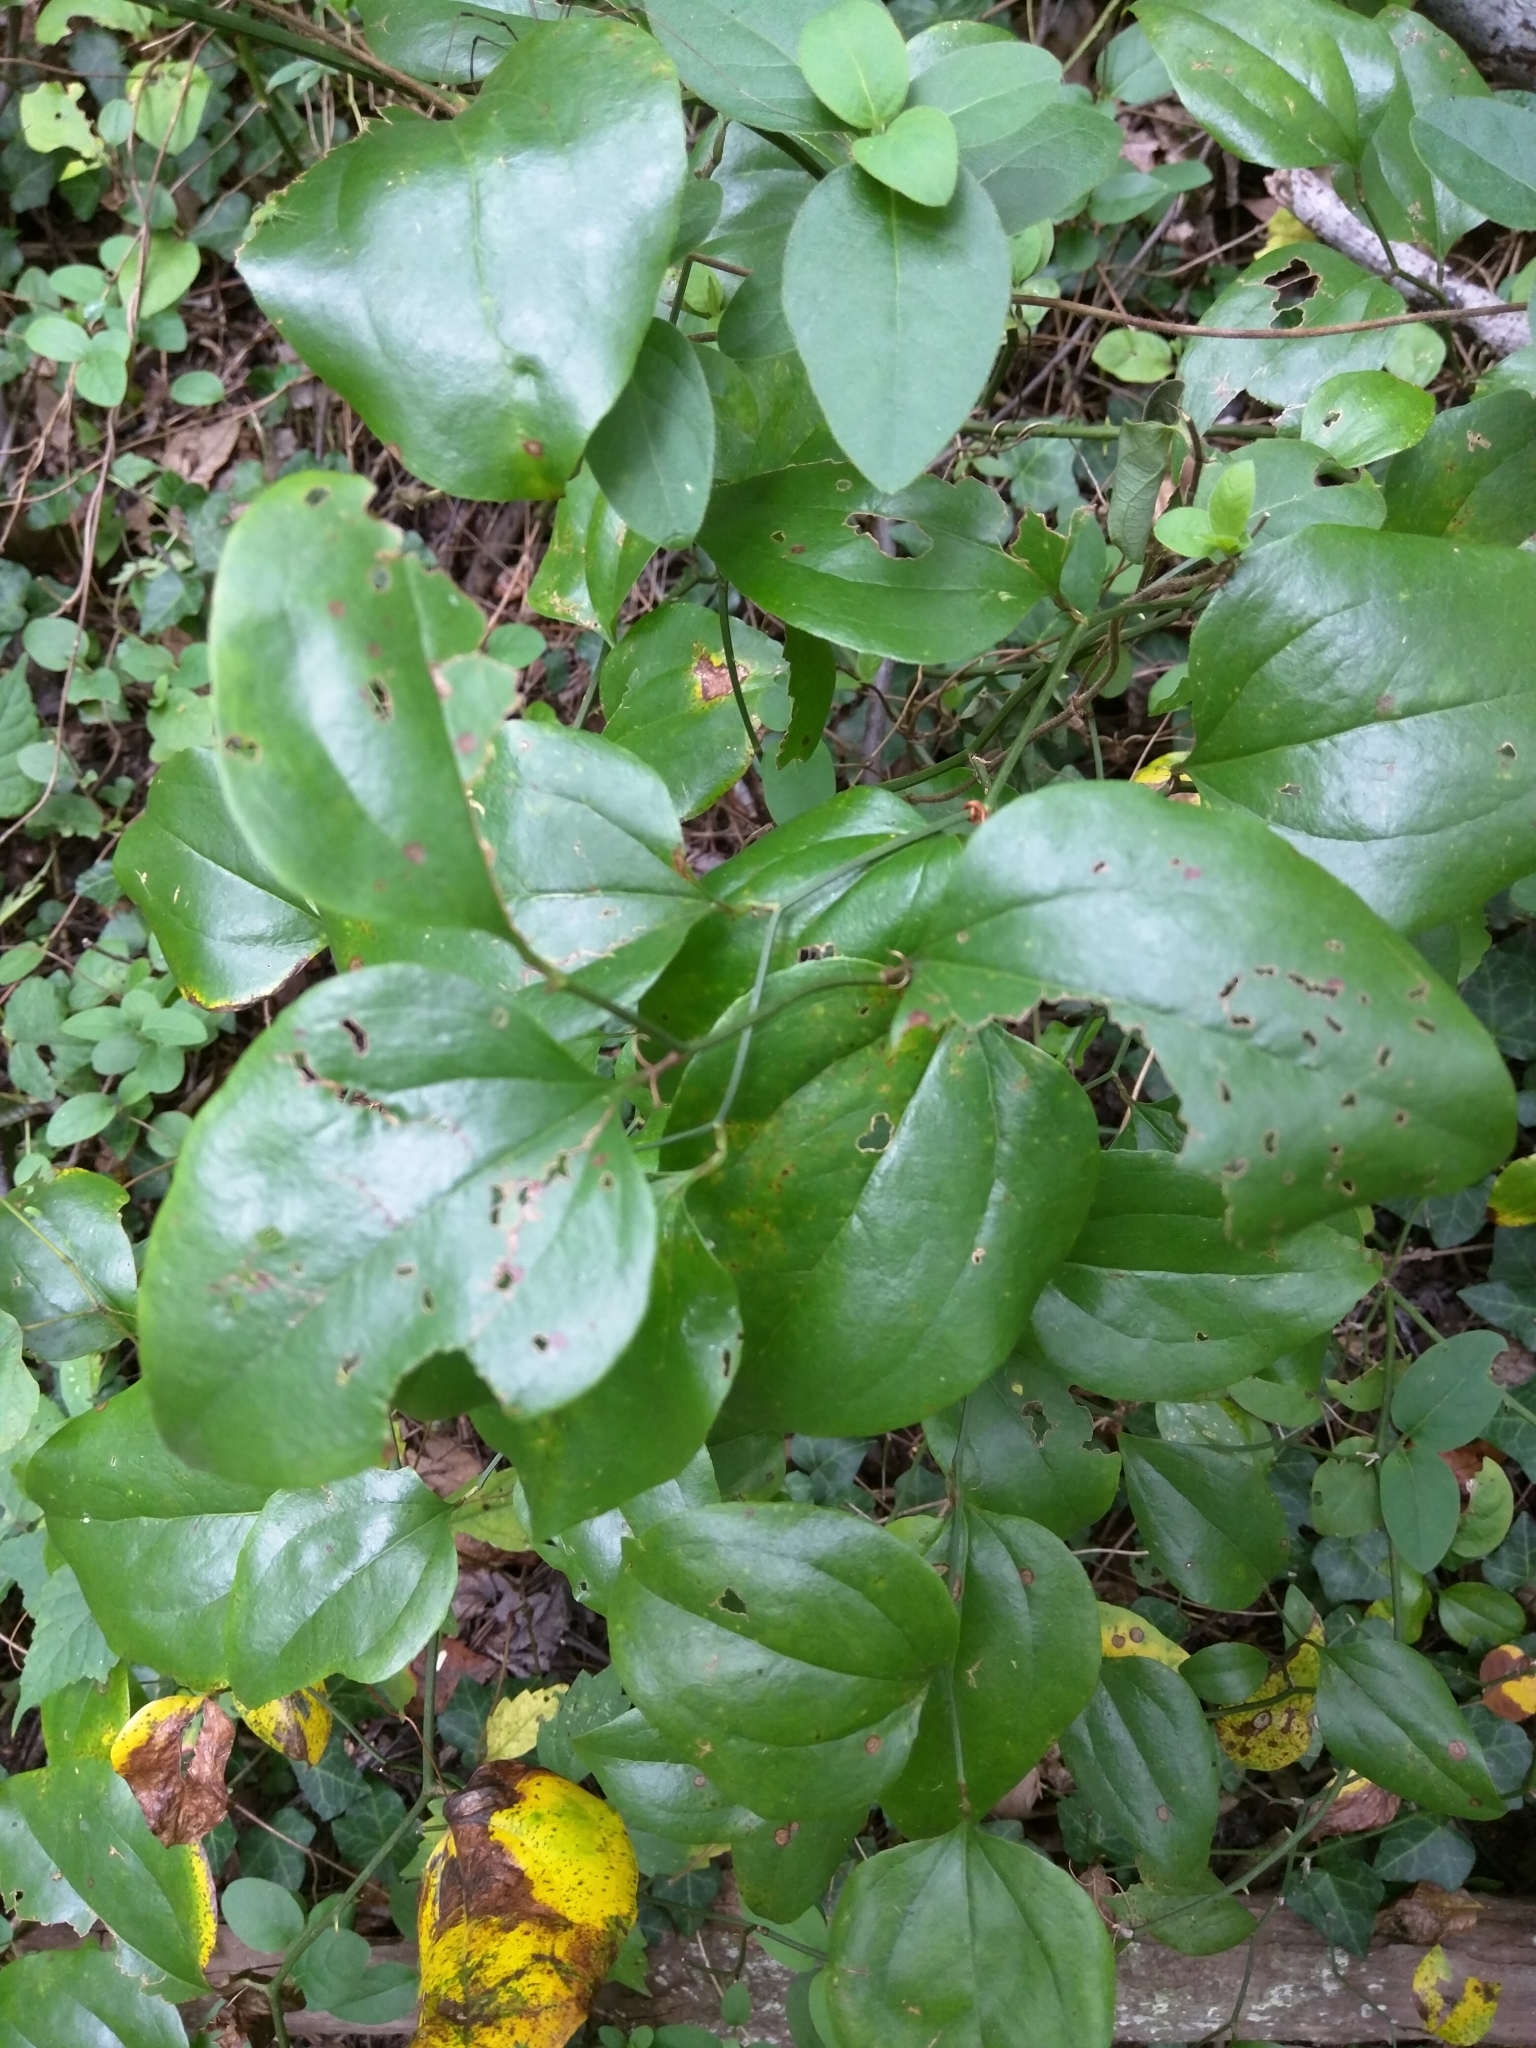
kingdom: Plantae
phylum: Tracheophyta
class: Liliopsida
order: Liliales
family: Smilacaceae
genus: Smilax
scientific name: Smilax rotundifolia
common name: Bullbriar
